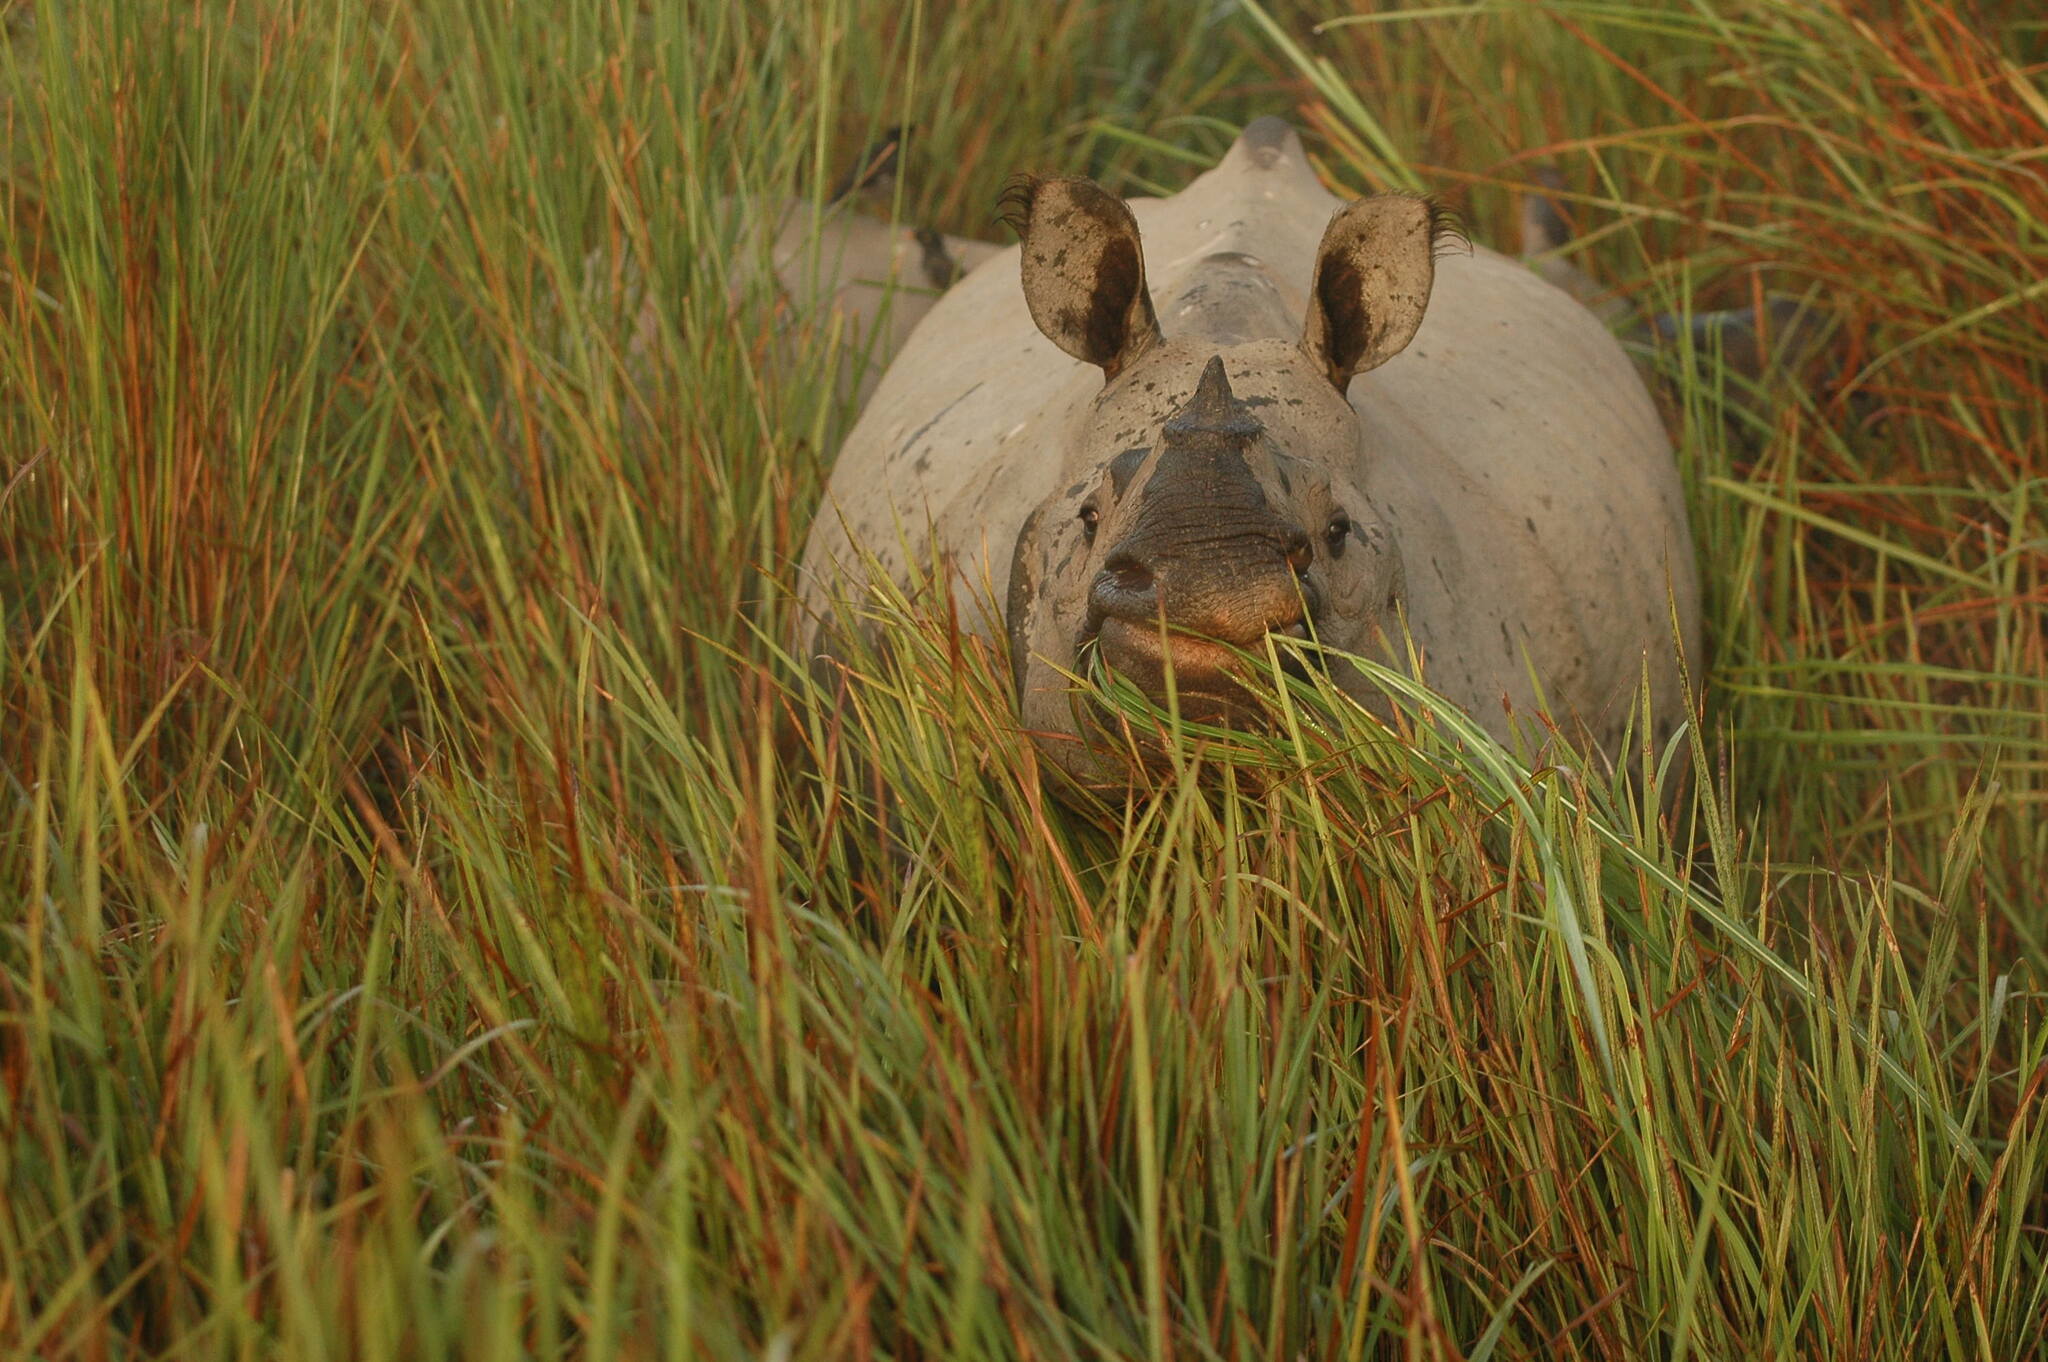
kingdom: Animalia
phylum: Chordata
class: Mammalia
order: Perissodactyla
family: Rhinocerotidae
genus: Rhinoceros
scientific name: Rhinoceros unicornis
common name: Indian rhinoceros
